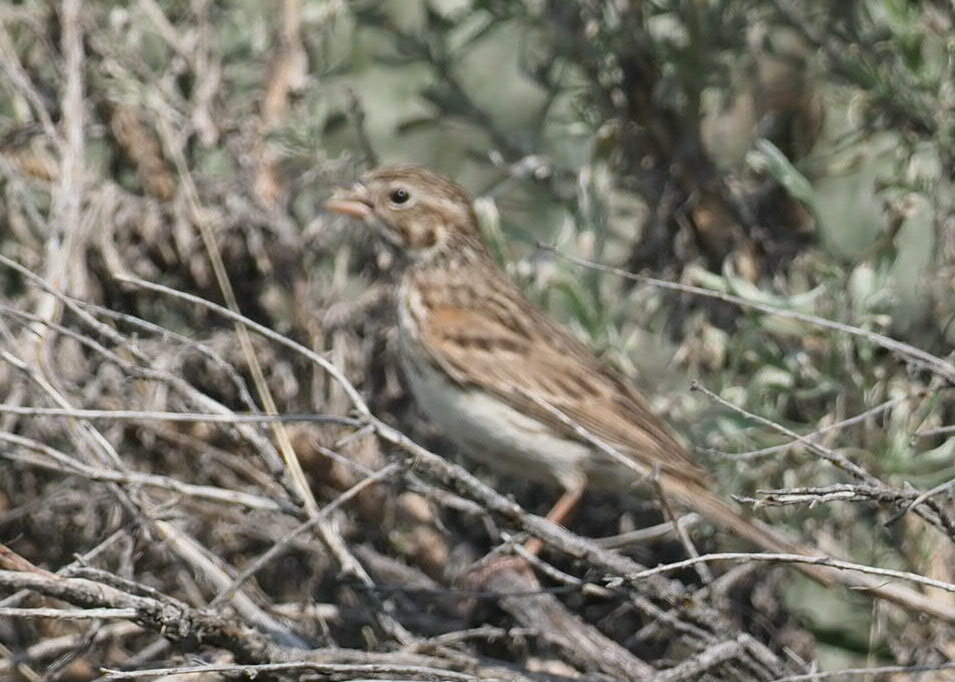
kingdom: Animalia
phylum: Chordata
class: Aves
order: Passeriformes
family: Passerellidae
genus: Pooecetes
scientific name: Pooecetes gramineus
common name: Vesper sparrow
